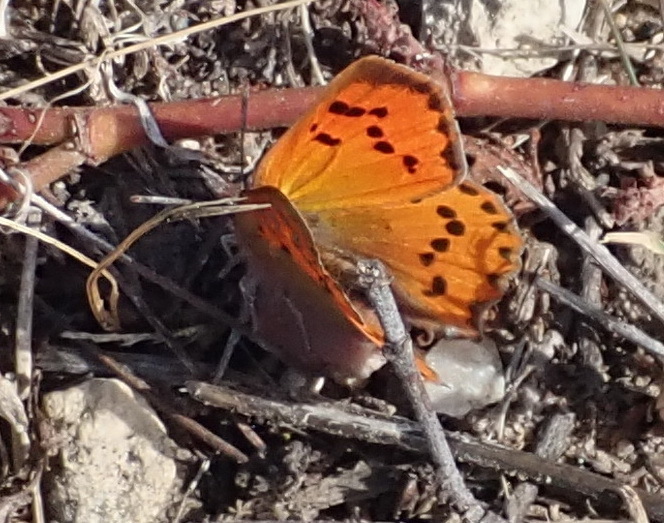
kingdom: Animalia
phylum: Arthropoda
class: Insecta
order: Lepidoptera
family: Lycaenidae
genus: Zeritis
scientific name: Zeritis chrysaor
